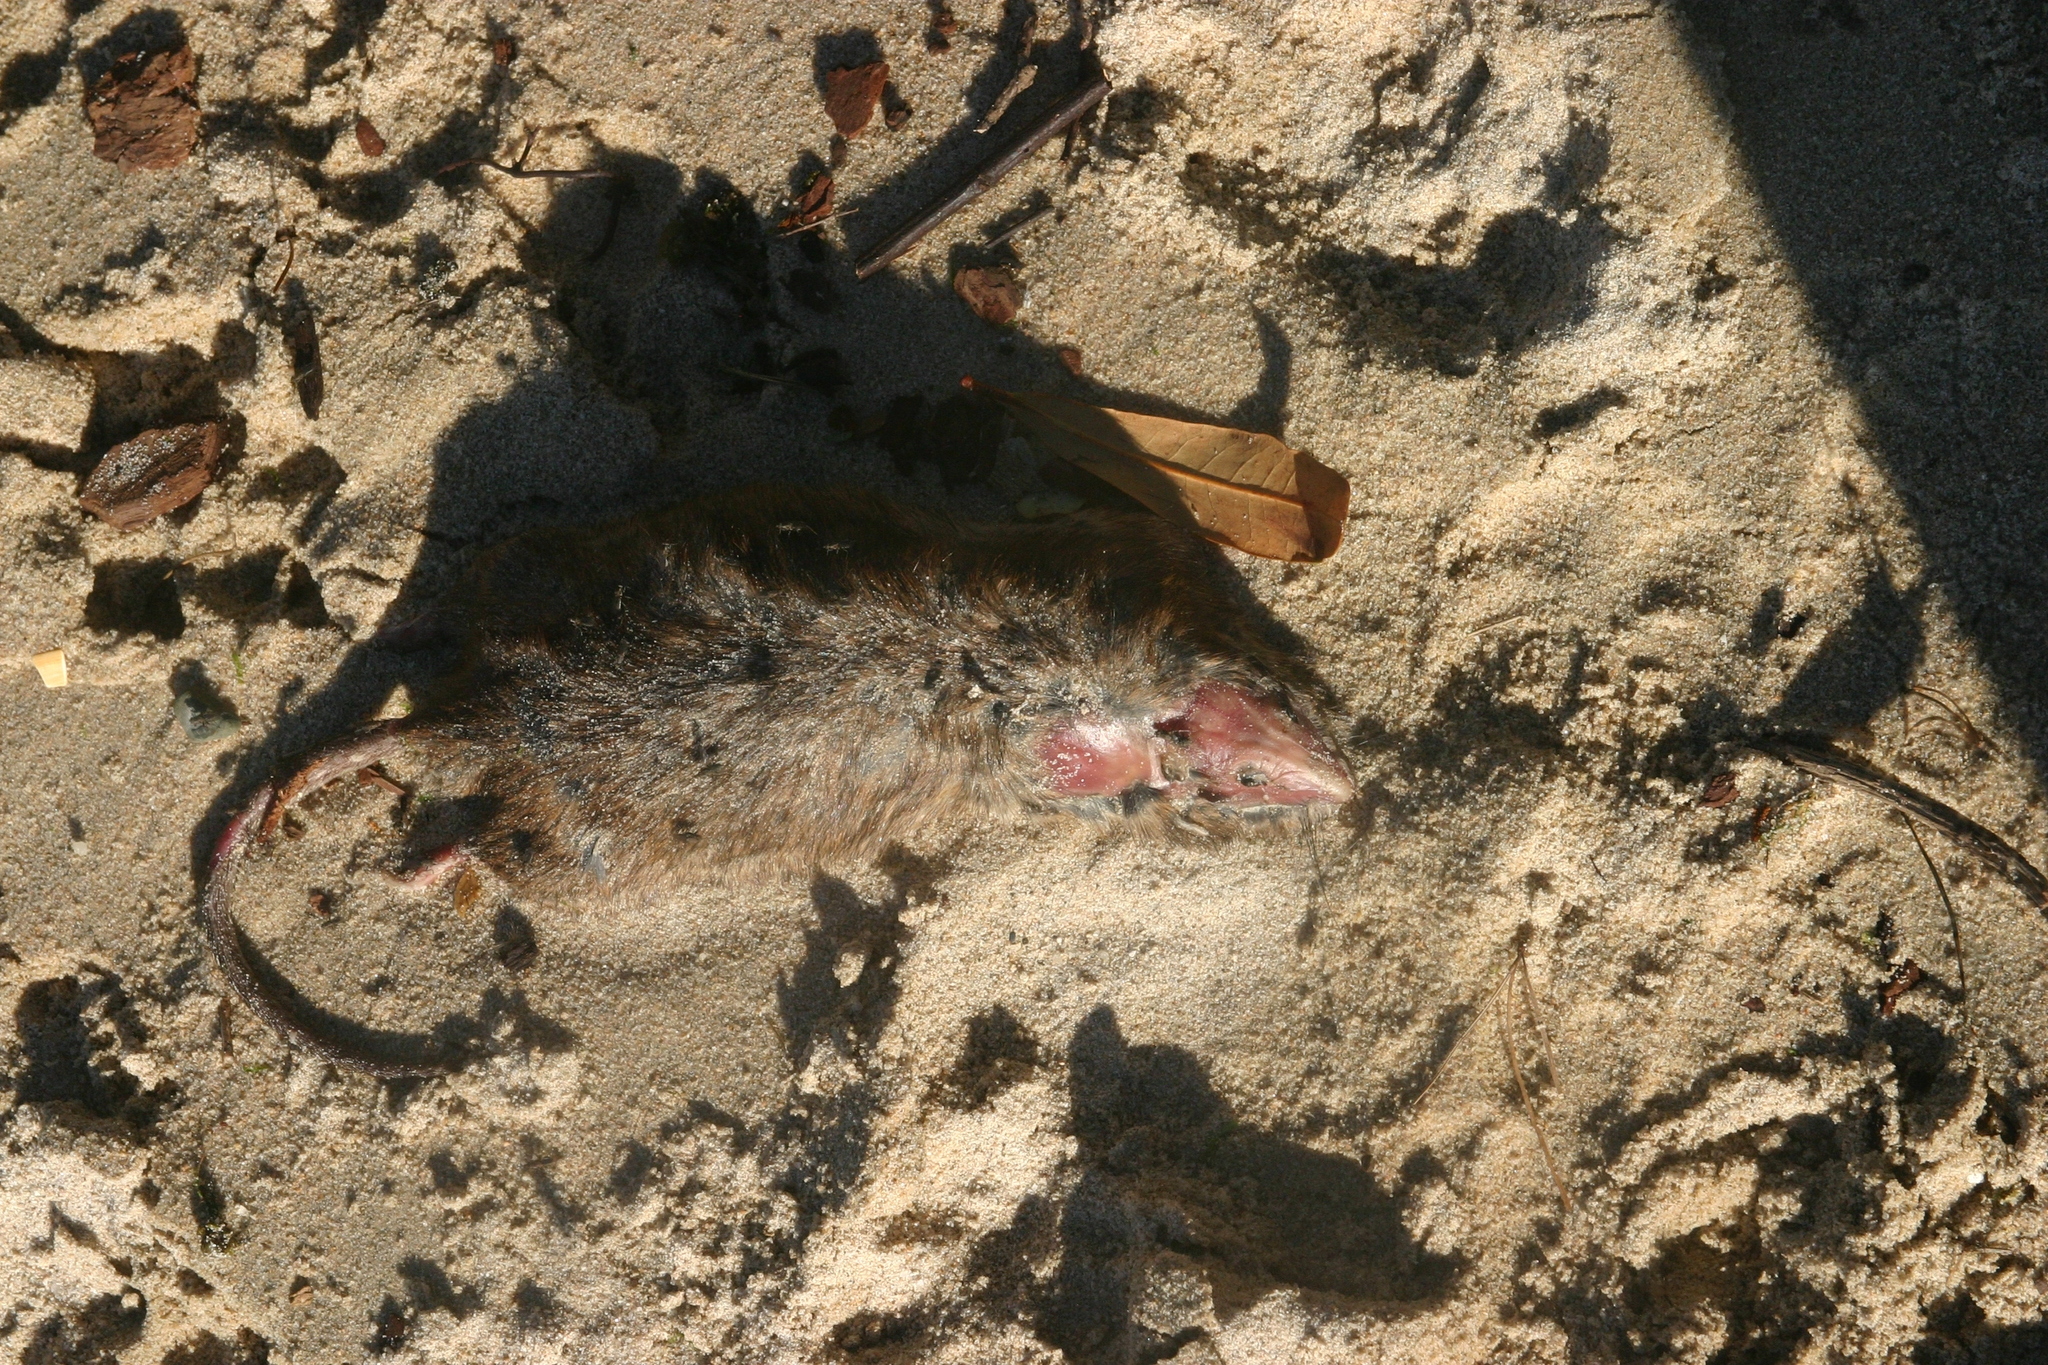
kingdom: Animalia
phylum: Chordata
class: Mammalia
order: Rodentia
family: Muridae
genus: Rattus
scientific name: Rattus norvegicus
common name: Brown rat
